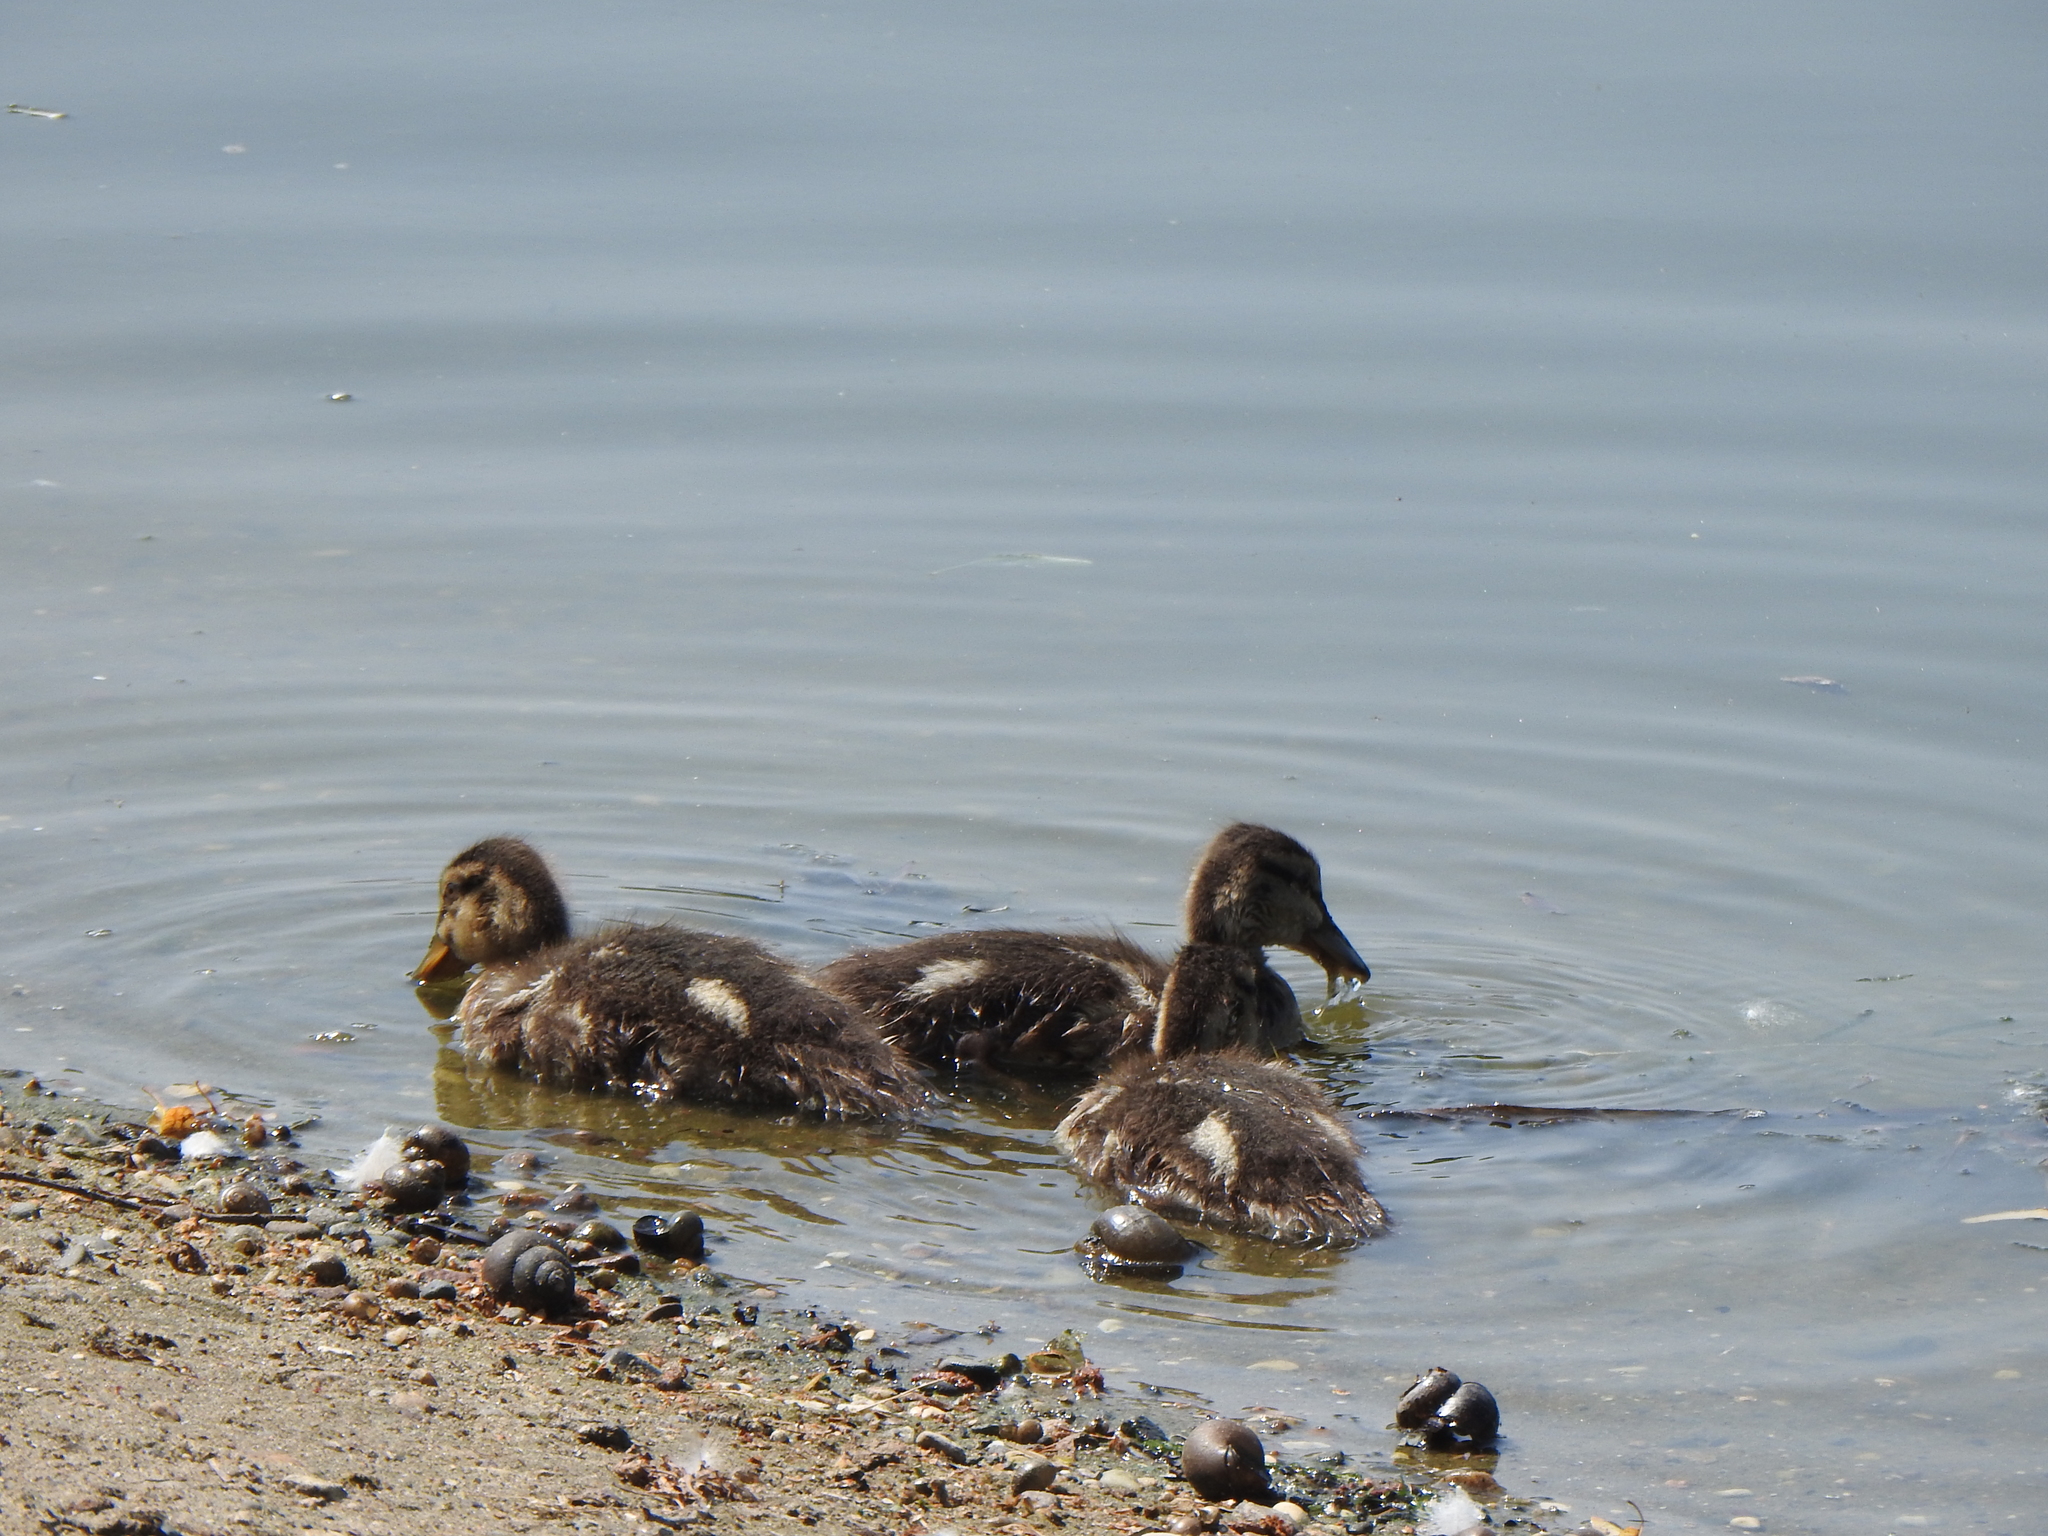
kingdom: Animalia
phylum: Chordata
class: Aves
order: Anseriformes
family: Anatidae
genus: Anas
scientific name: Anas platyrhynchos
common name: Mallard
